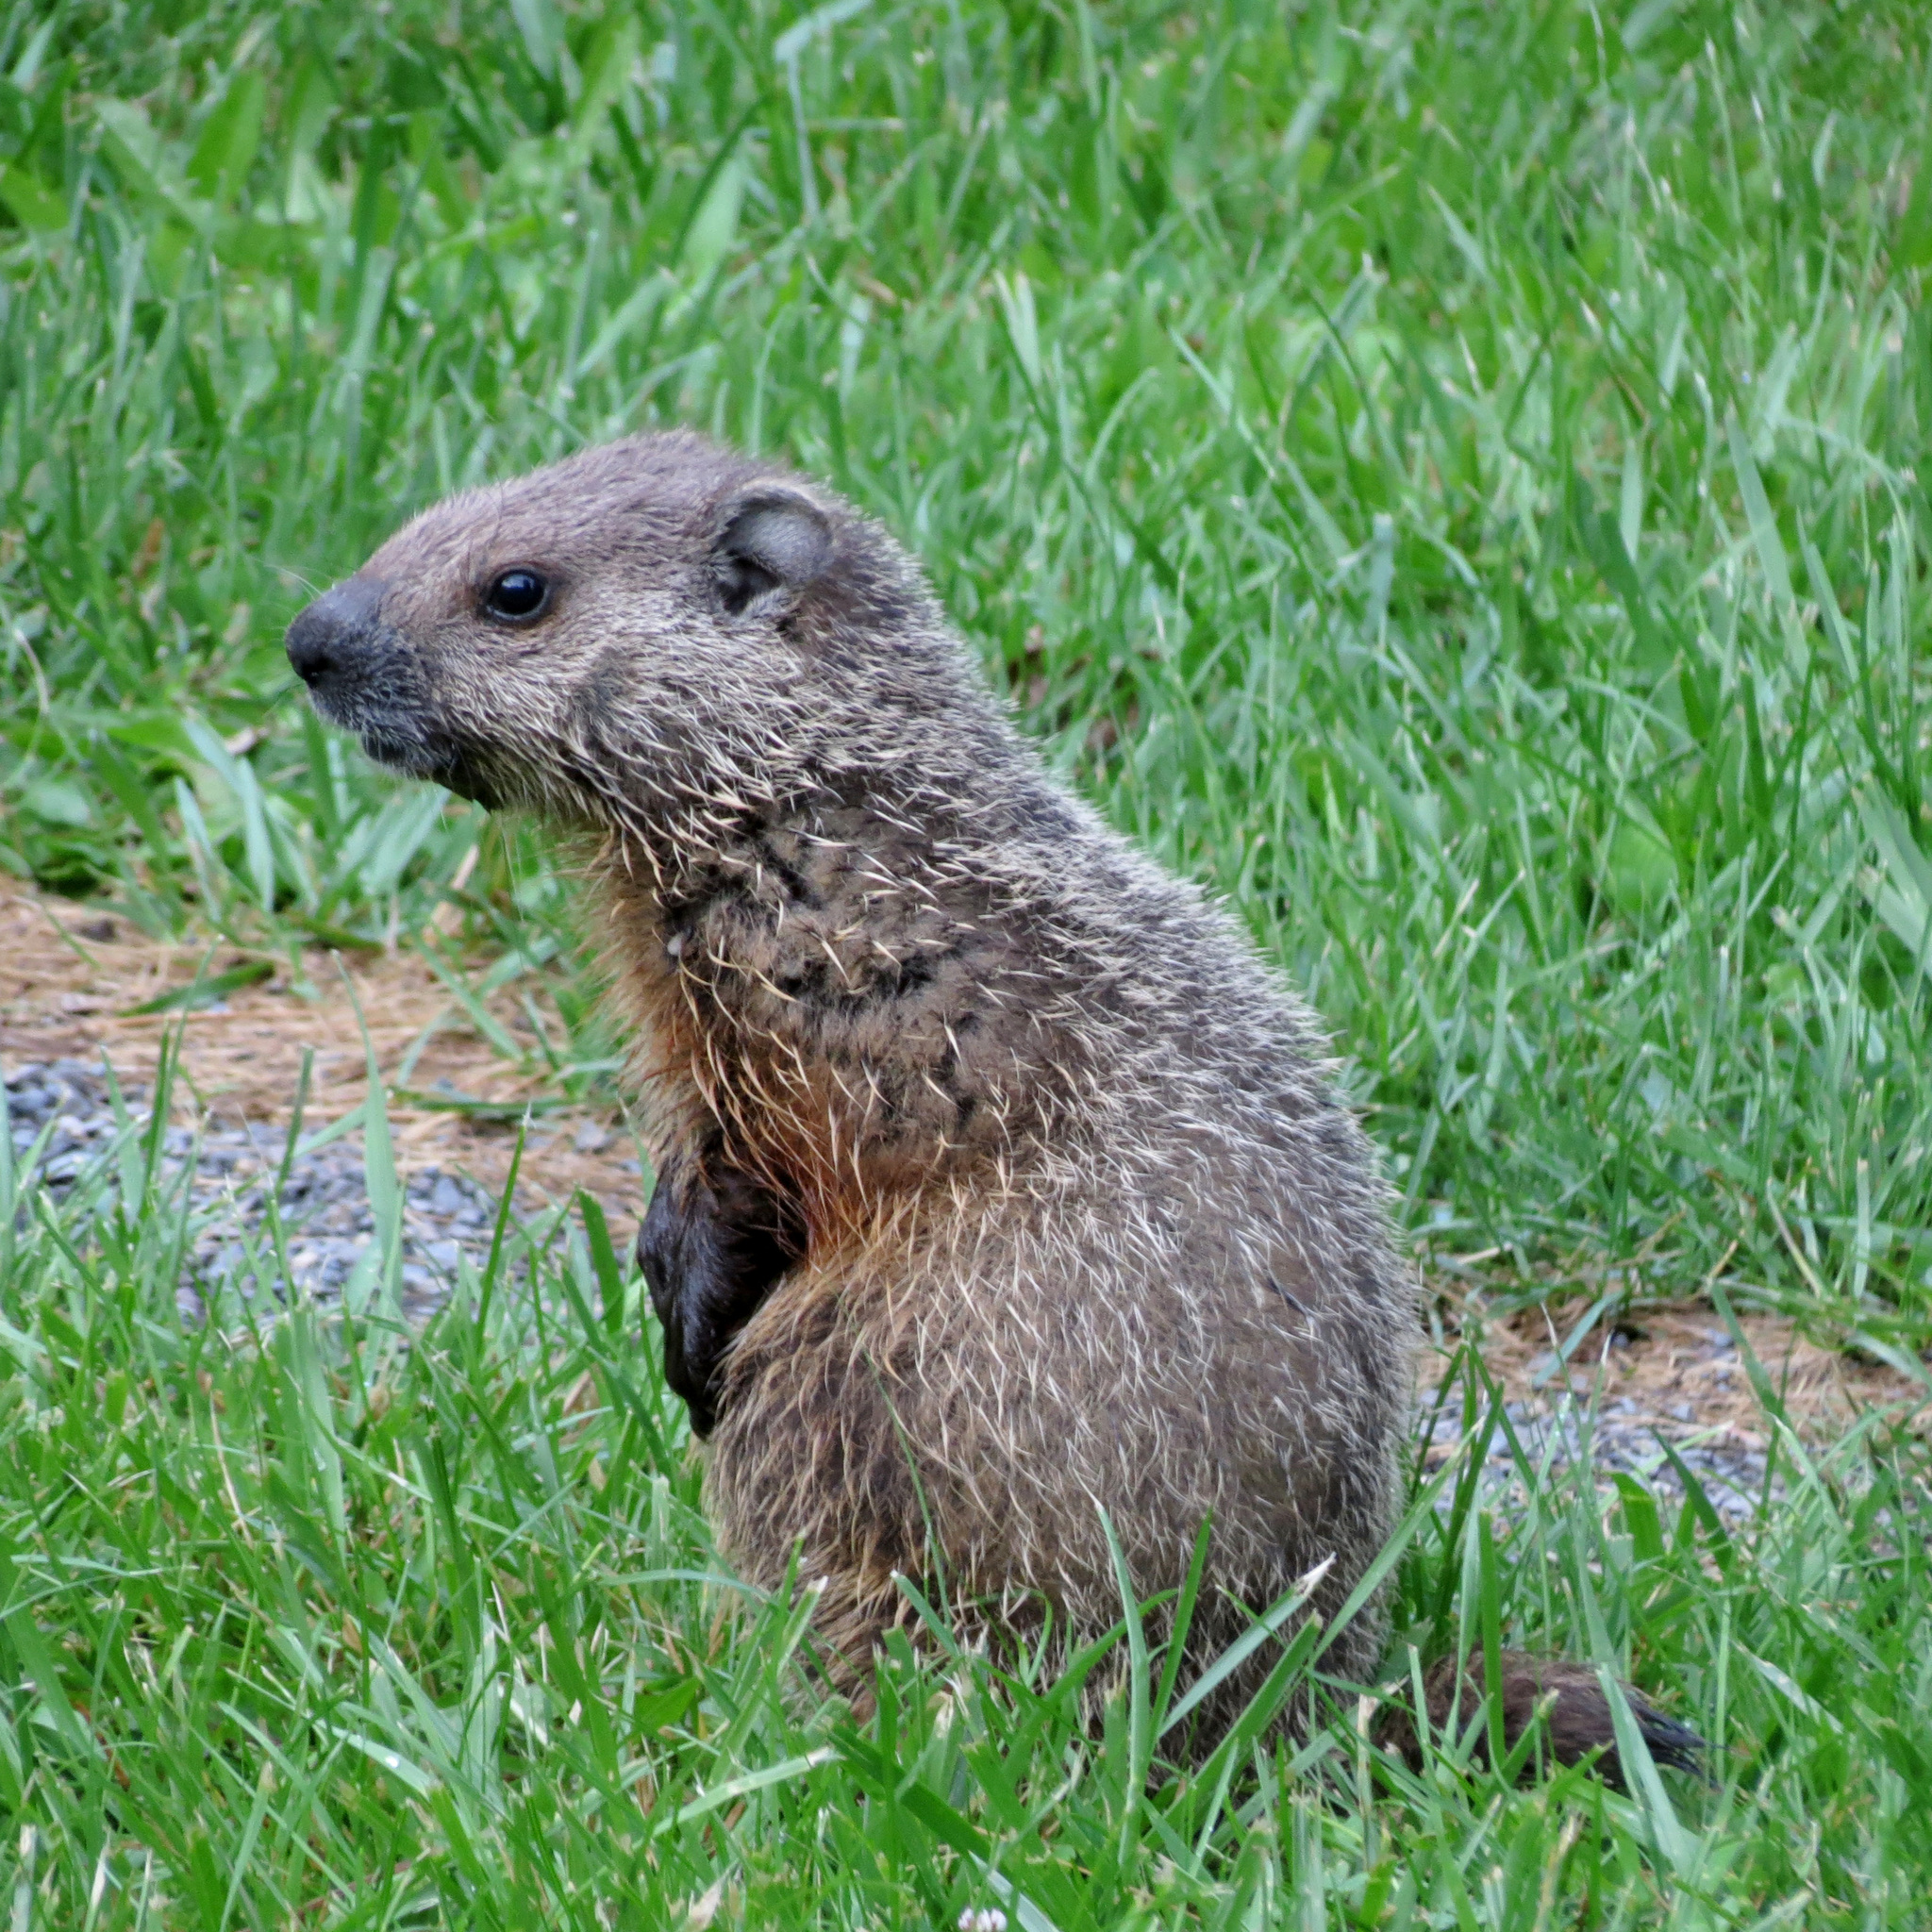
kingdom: Animalia
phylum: Chordata
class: Mammalia
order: Rodentia
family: Sciuridae
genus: Marmota
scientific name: Marmota monax
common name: Groundhog
